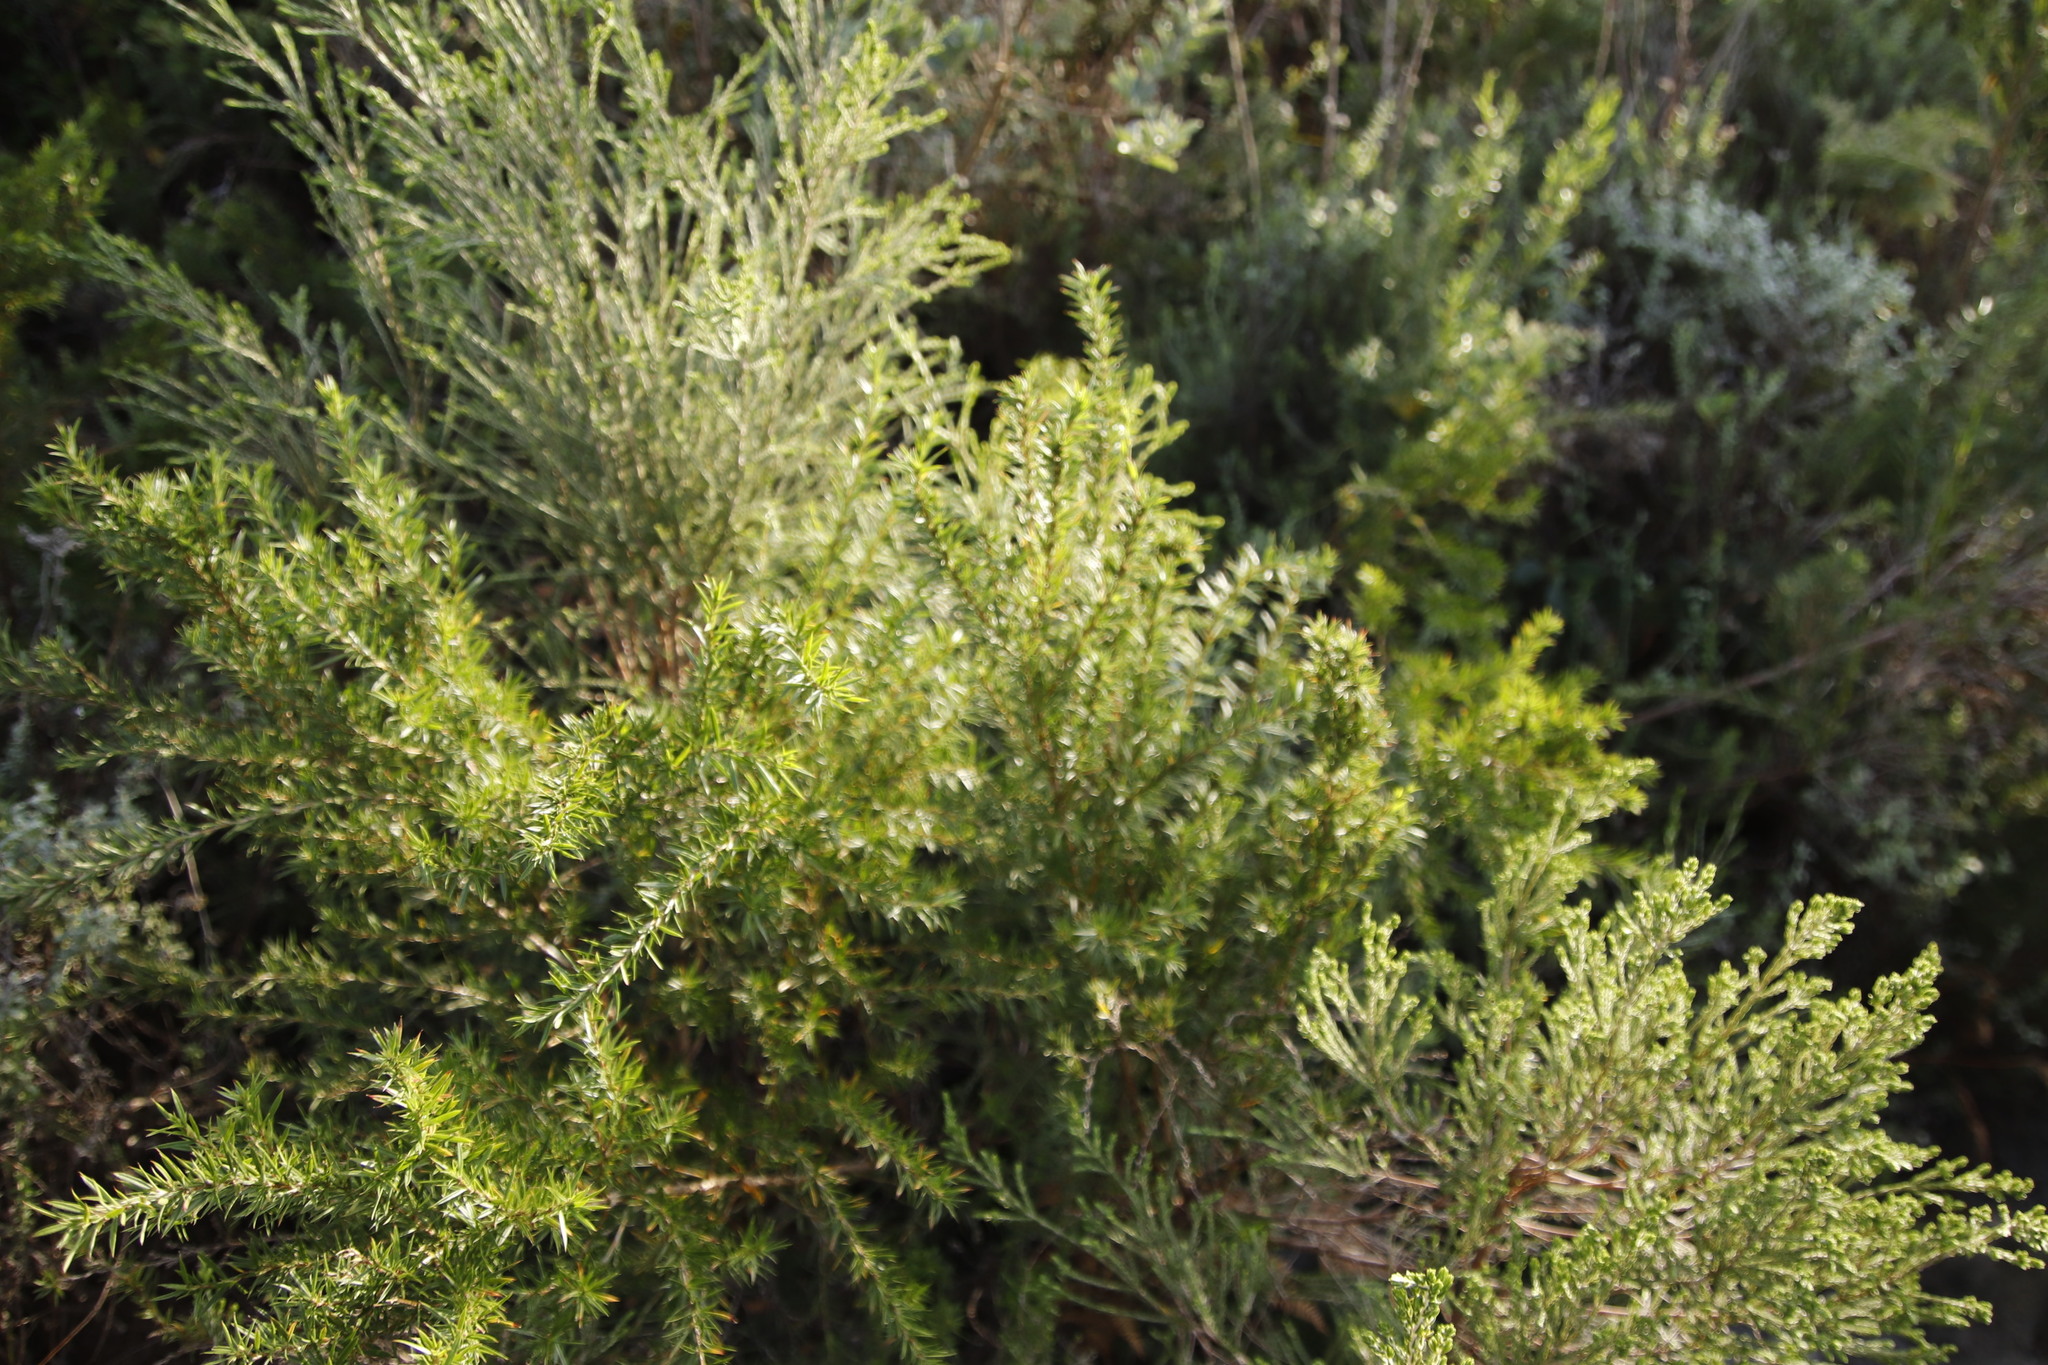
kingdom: Plantae
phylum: Tracheophyta
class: Magnoliopsida
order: Rosales
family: Rosaceae
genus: Cliffortia
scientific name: Cliffortia strobilifera
